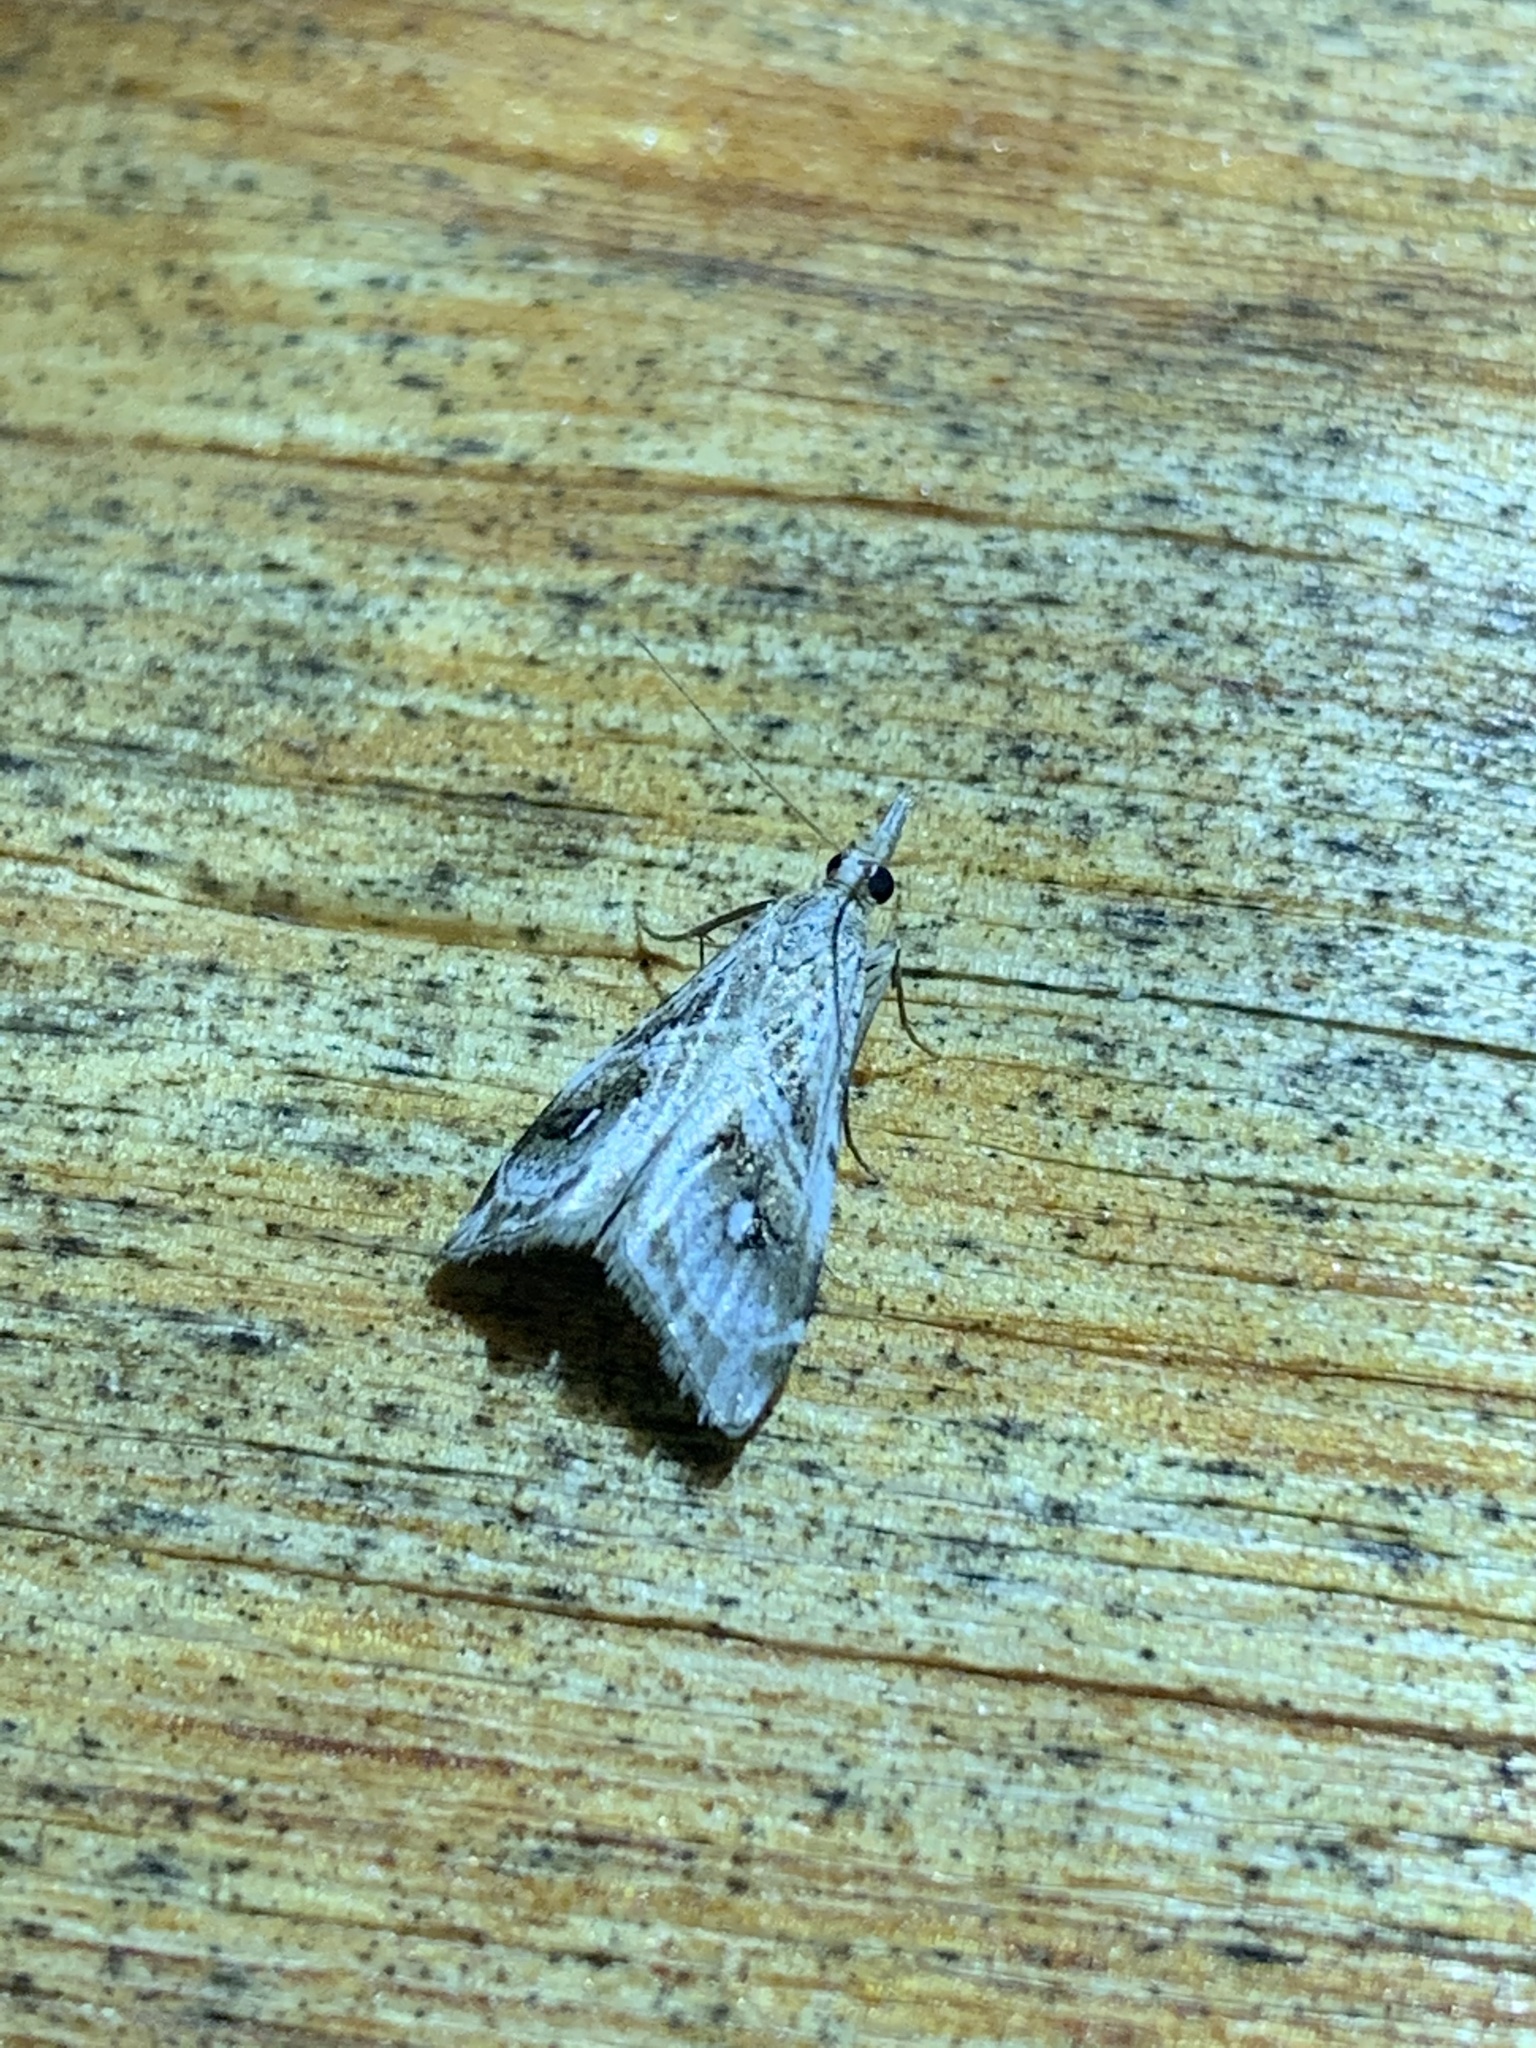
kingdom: Animalia
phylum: Arthropoda
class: Insecta
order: Lepidoptera
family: Crambidae
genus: Gadira
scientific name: Gadira acerella
